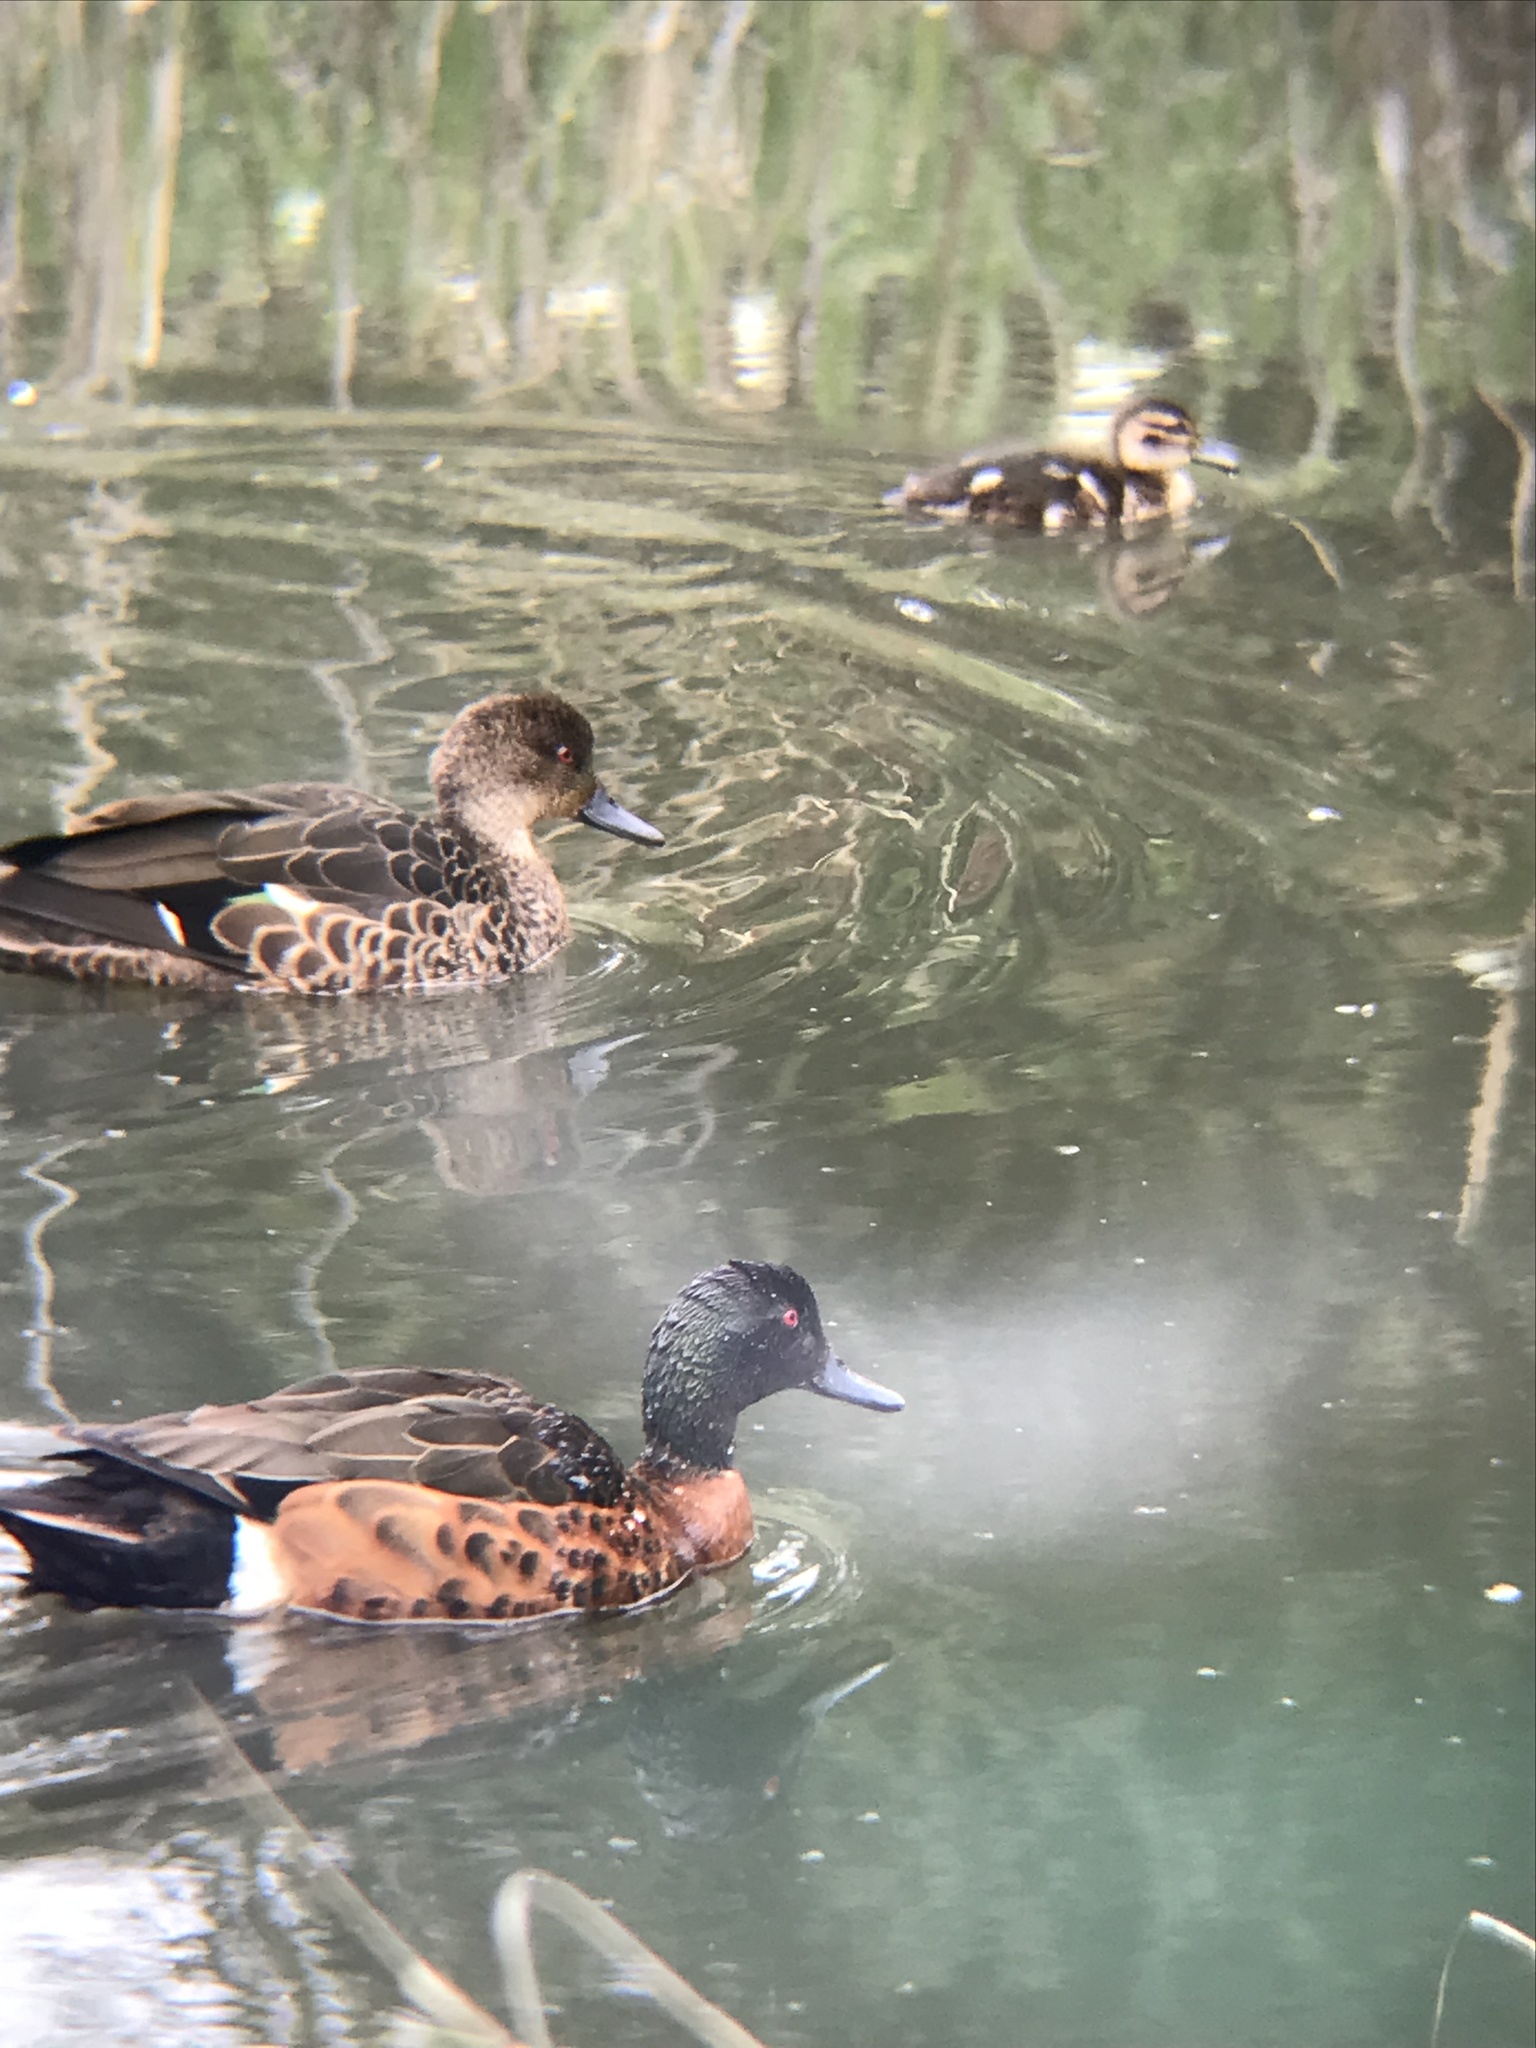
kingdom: Animalia
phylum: Chordata
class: Aves
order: Anseriformes
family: Anatidae
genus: Anas
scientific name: Anas castanea
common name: Chestnut teal
